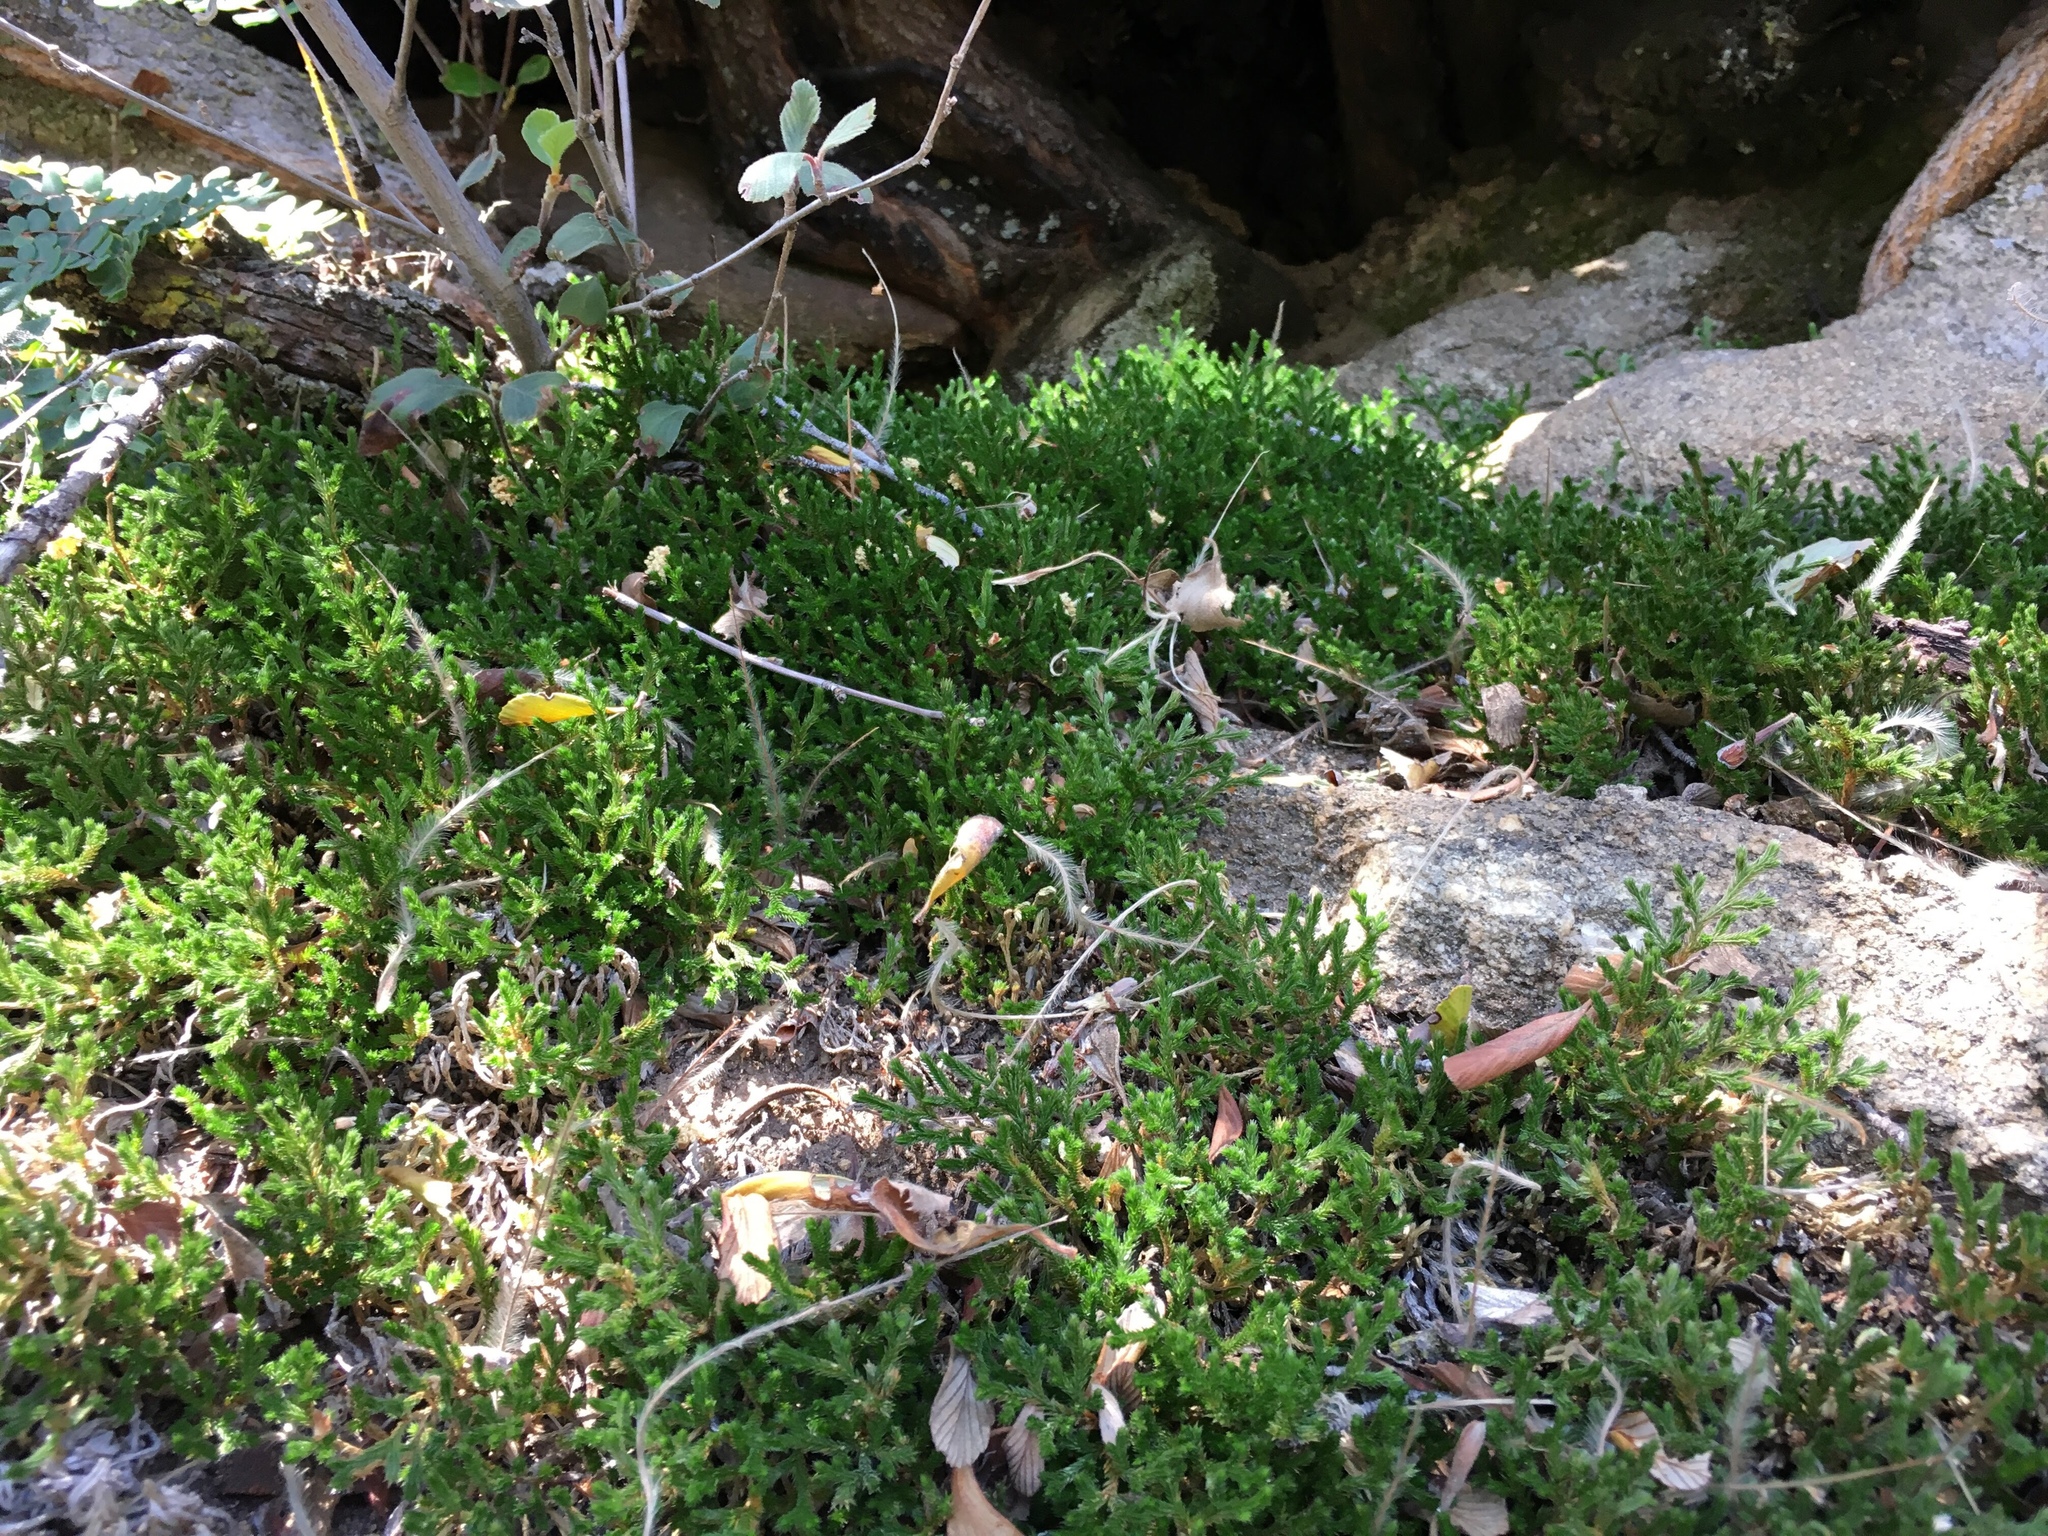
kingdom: Plantae
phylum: Tracheophyta
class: Lycopodiopsida
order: Selaginellales
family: Selaginellaceae
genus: Selaginella
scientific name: Selaginella bigelovii
